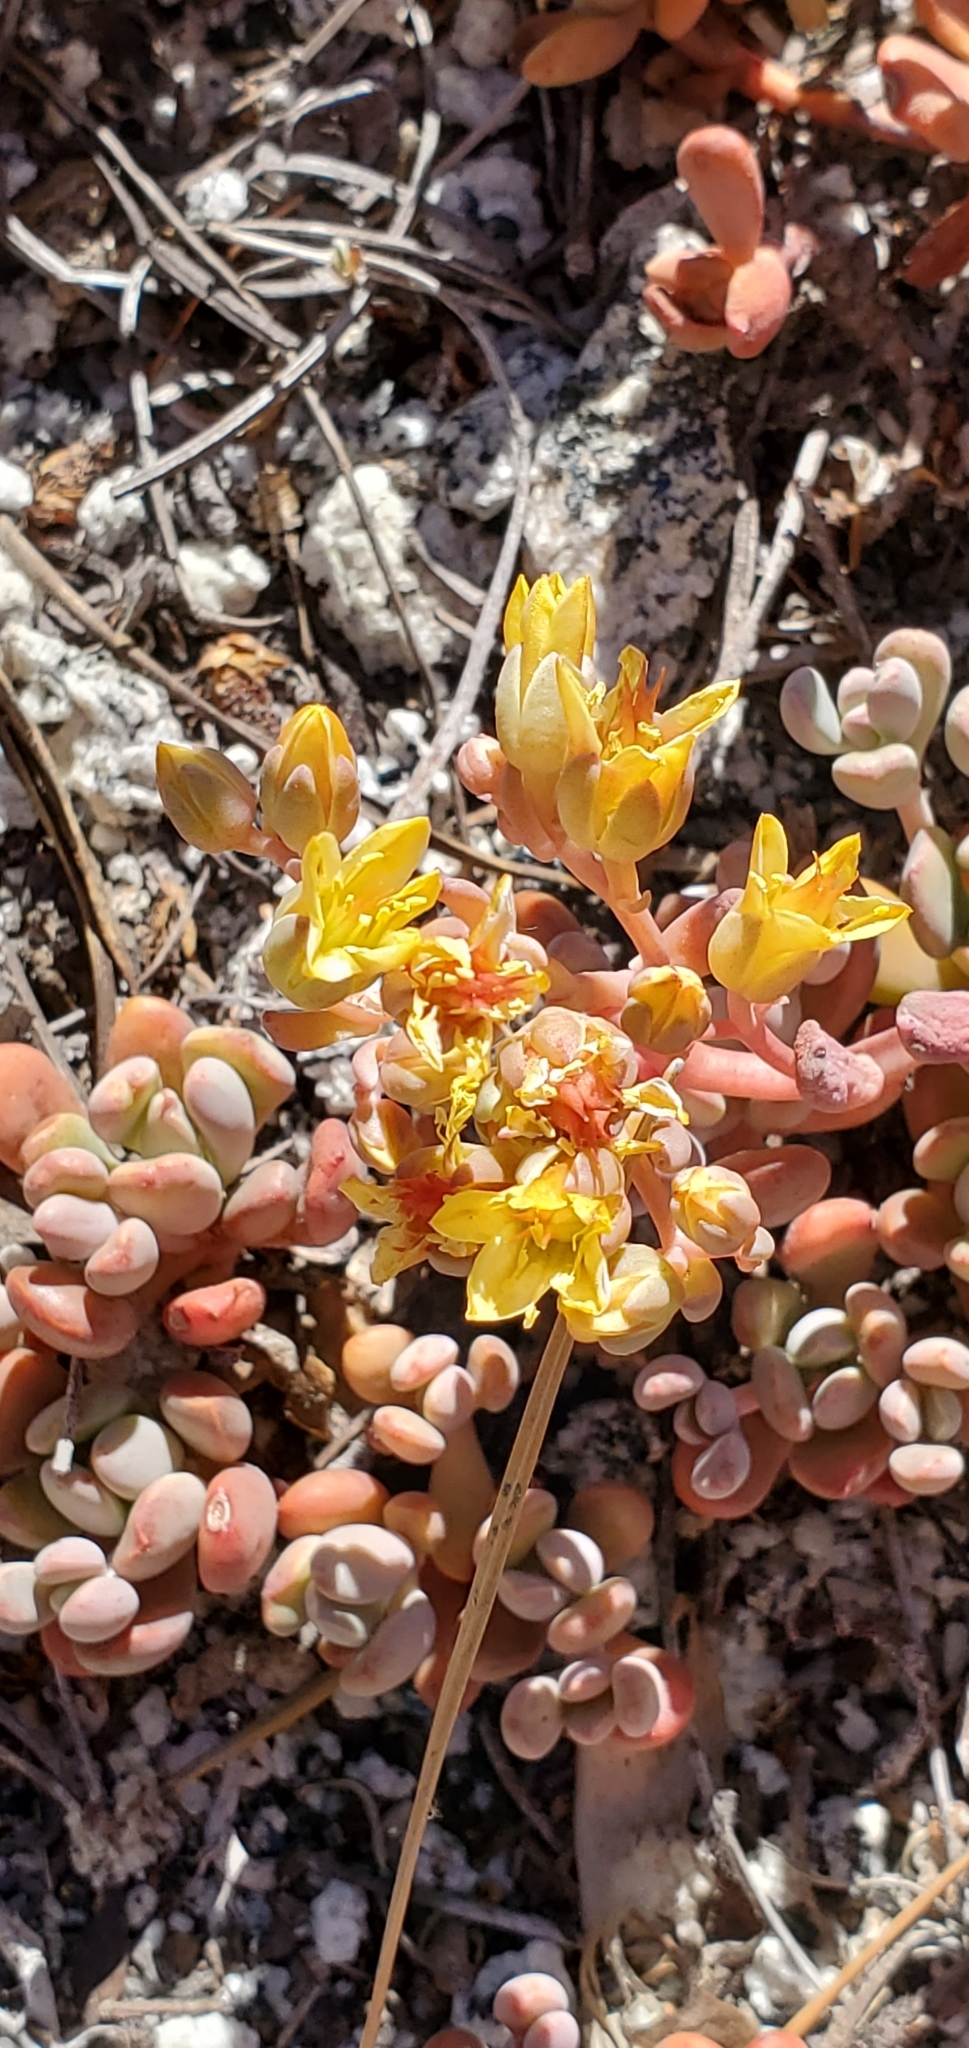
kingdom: Plantae
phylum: Tracheophyta
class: Magnoliopsida
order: Saxifragales
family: Crassulaceae
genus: Sedum
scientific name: Sedum obtusatum
